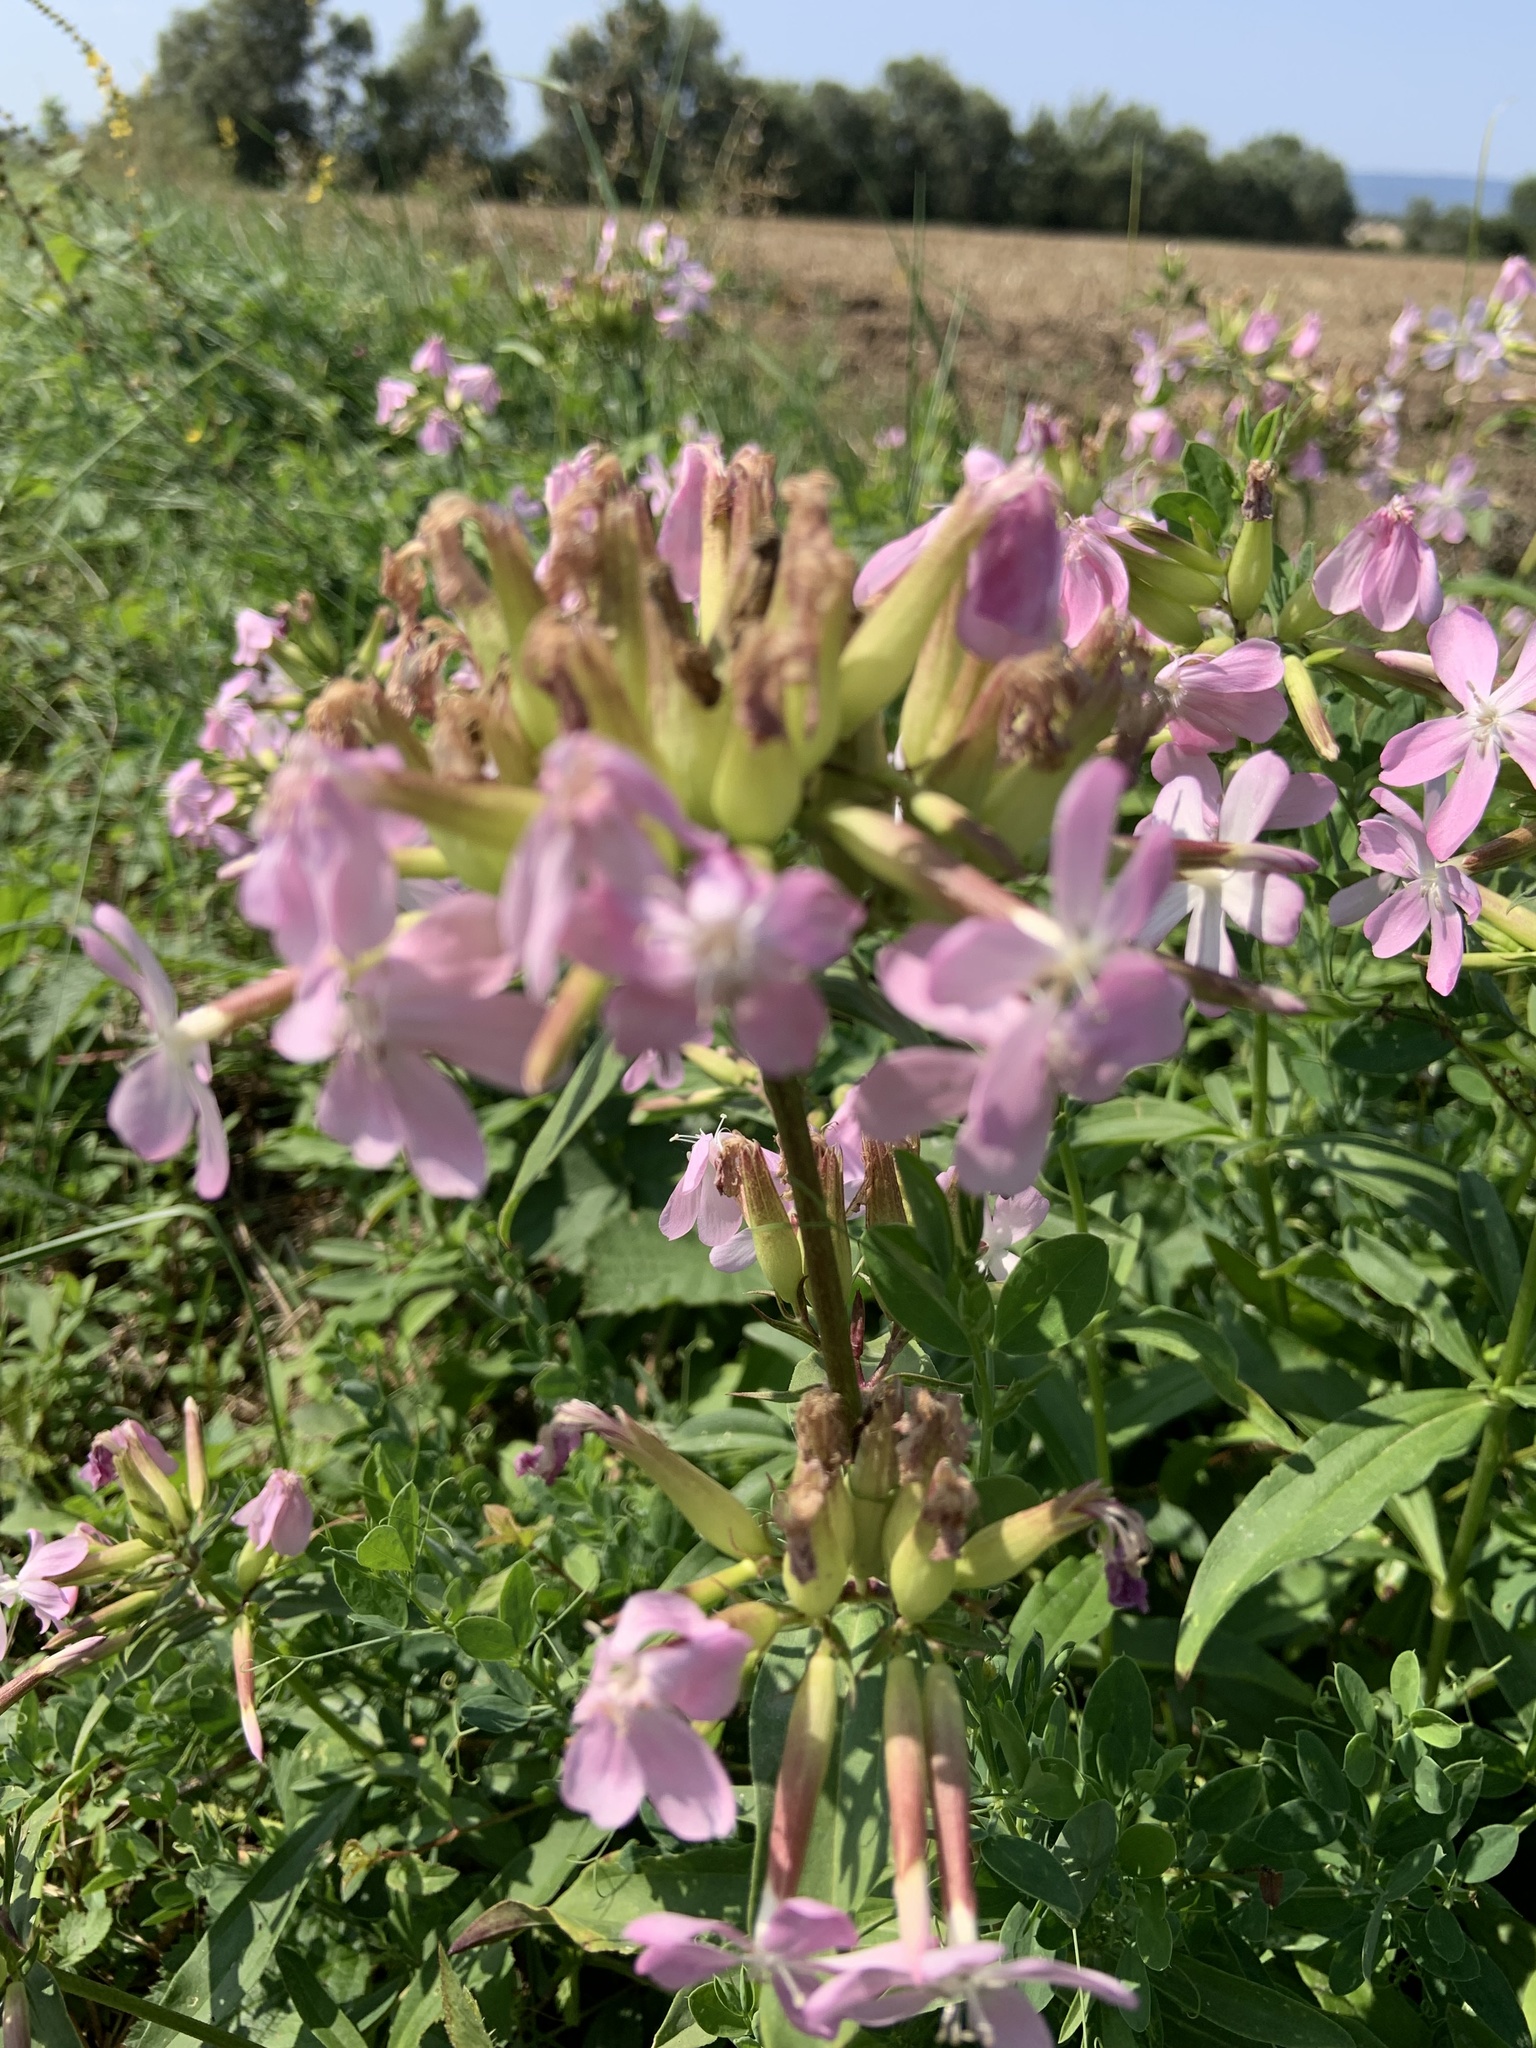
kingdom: Plantae
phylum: Tracheophyta
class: Magnoliopsida
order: Caryophyllales
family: Caryophyllaceae
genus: Saponaria
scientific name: Saponaria officinalis
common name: Soapwort
